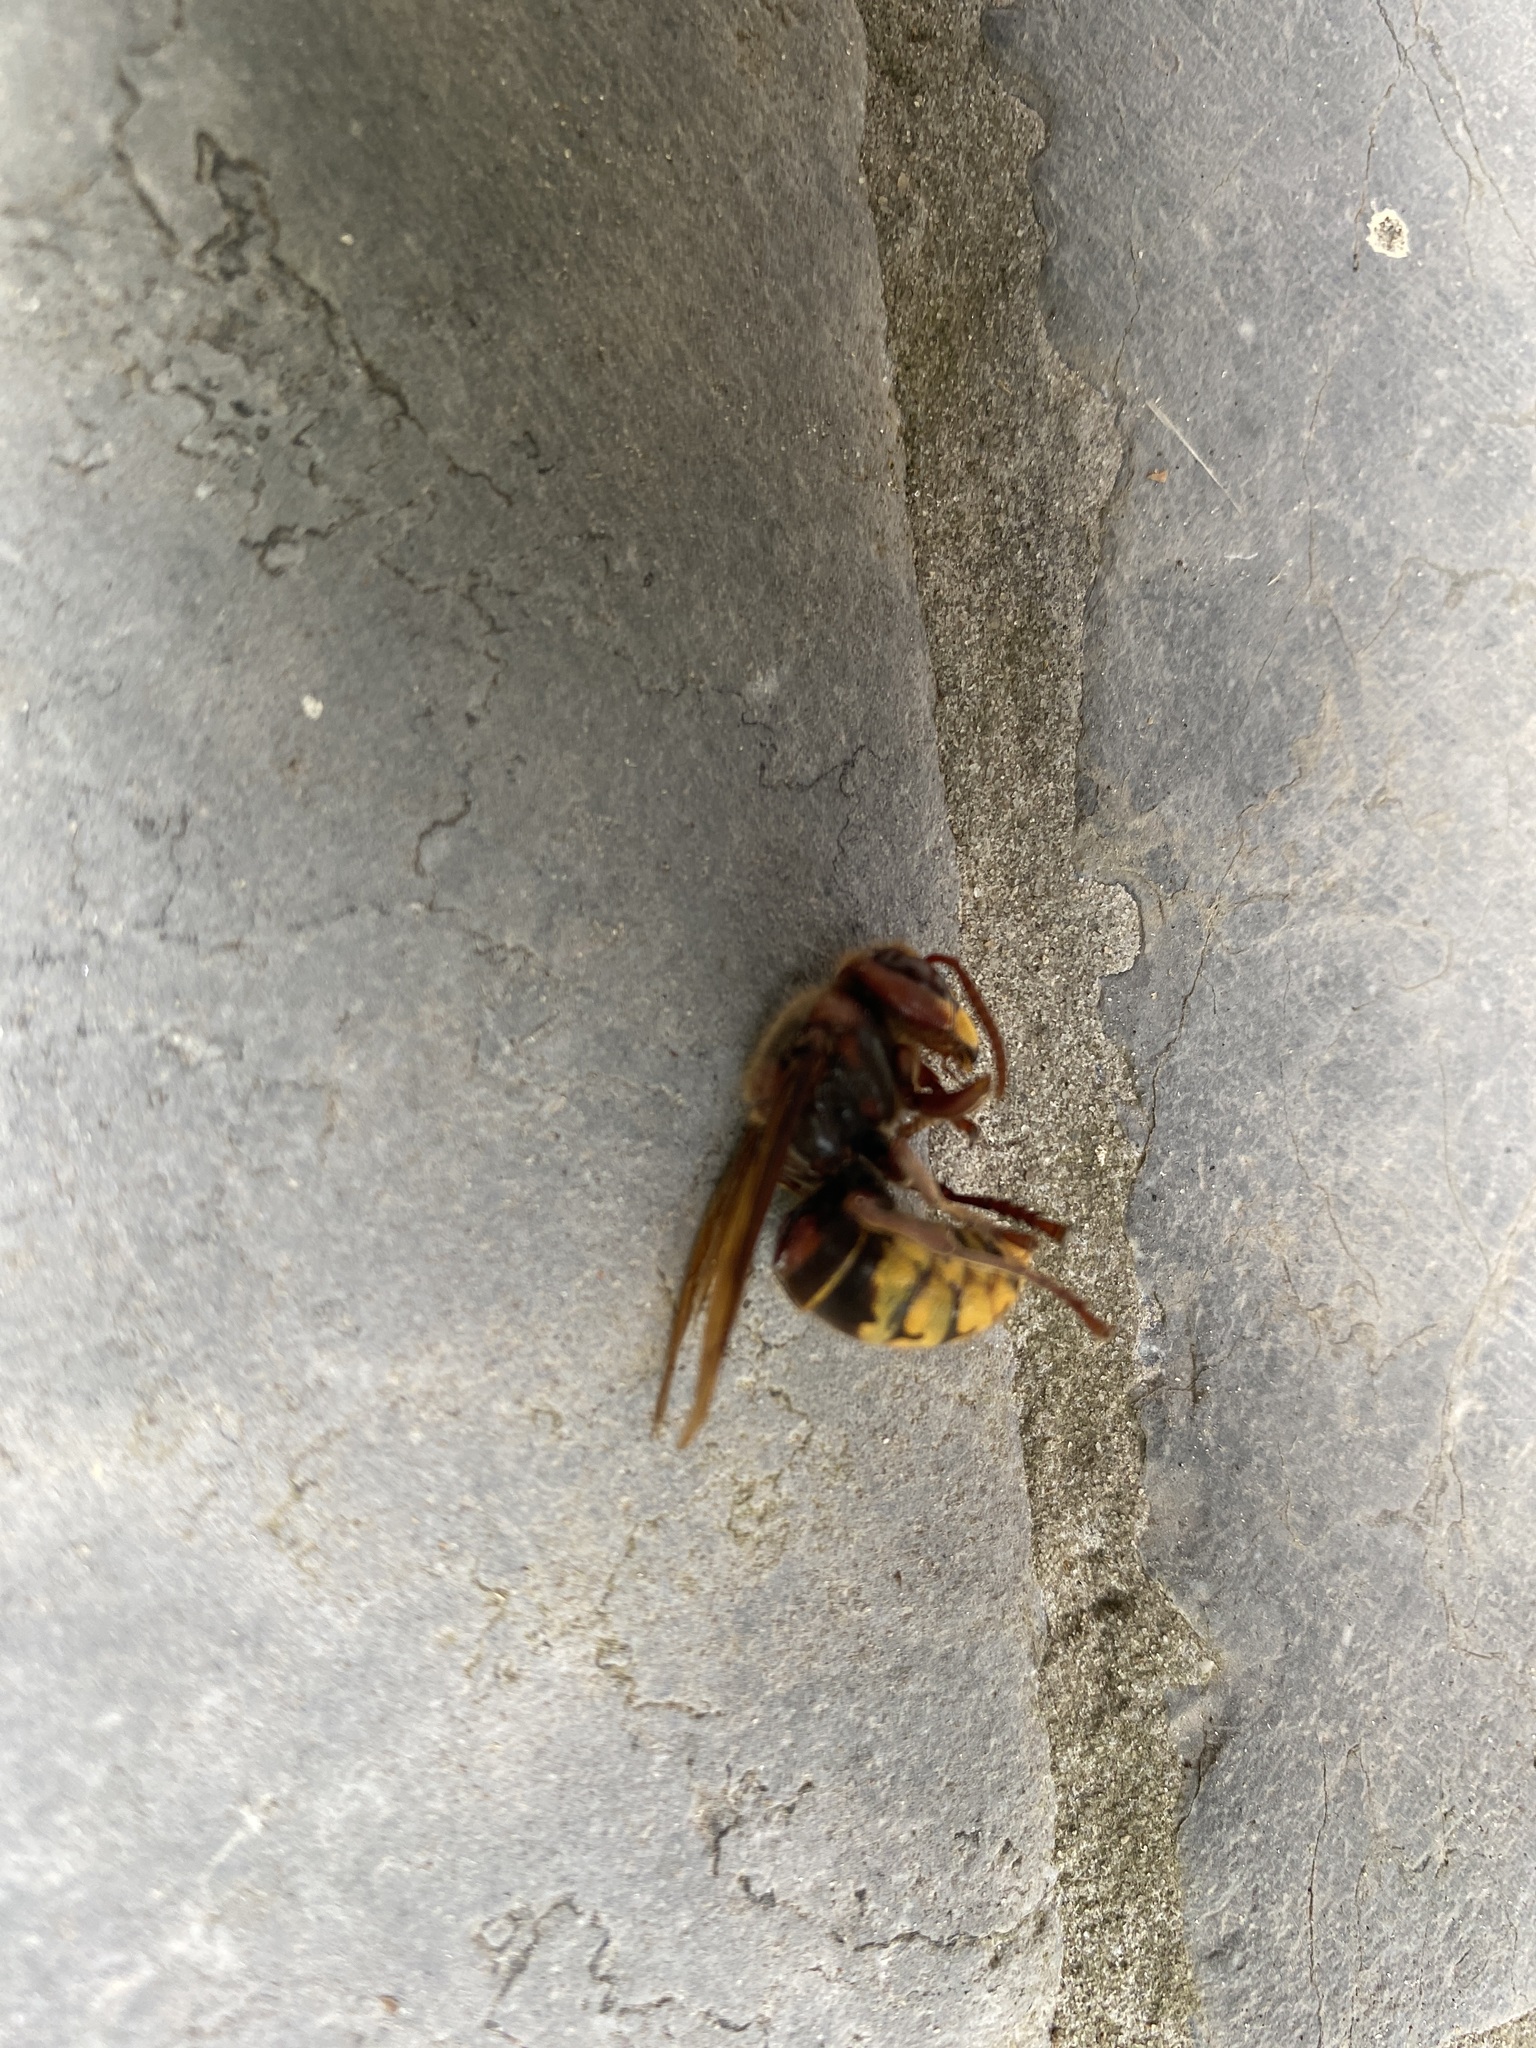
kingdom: Animalia
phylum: Arthropoda
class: Insecta
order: Hymenoptera
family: Vespidae
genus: Vespa
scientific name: Vespa crabro
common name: Hornet
